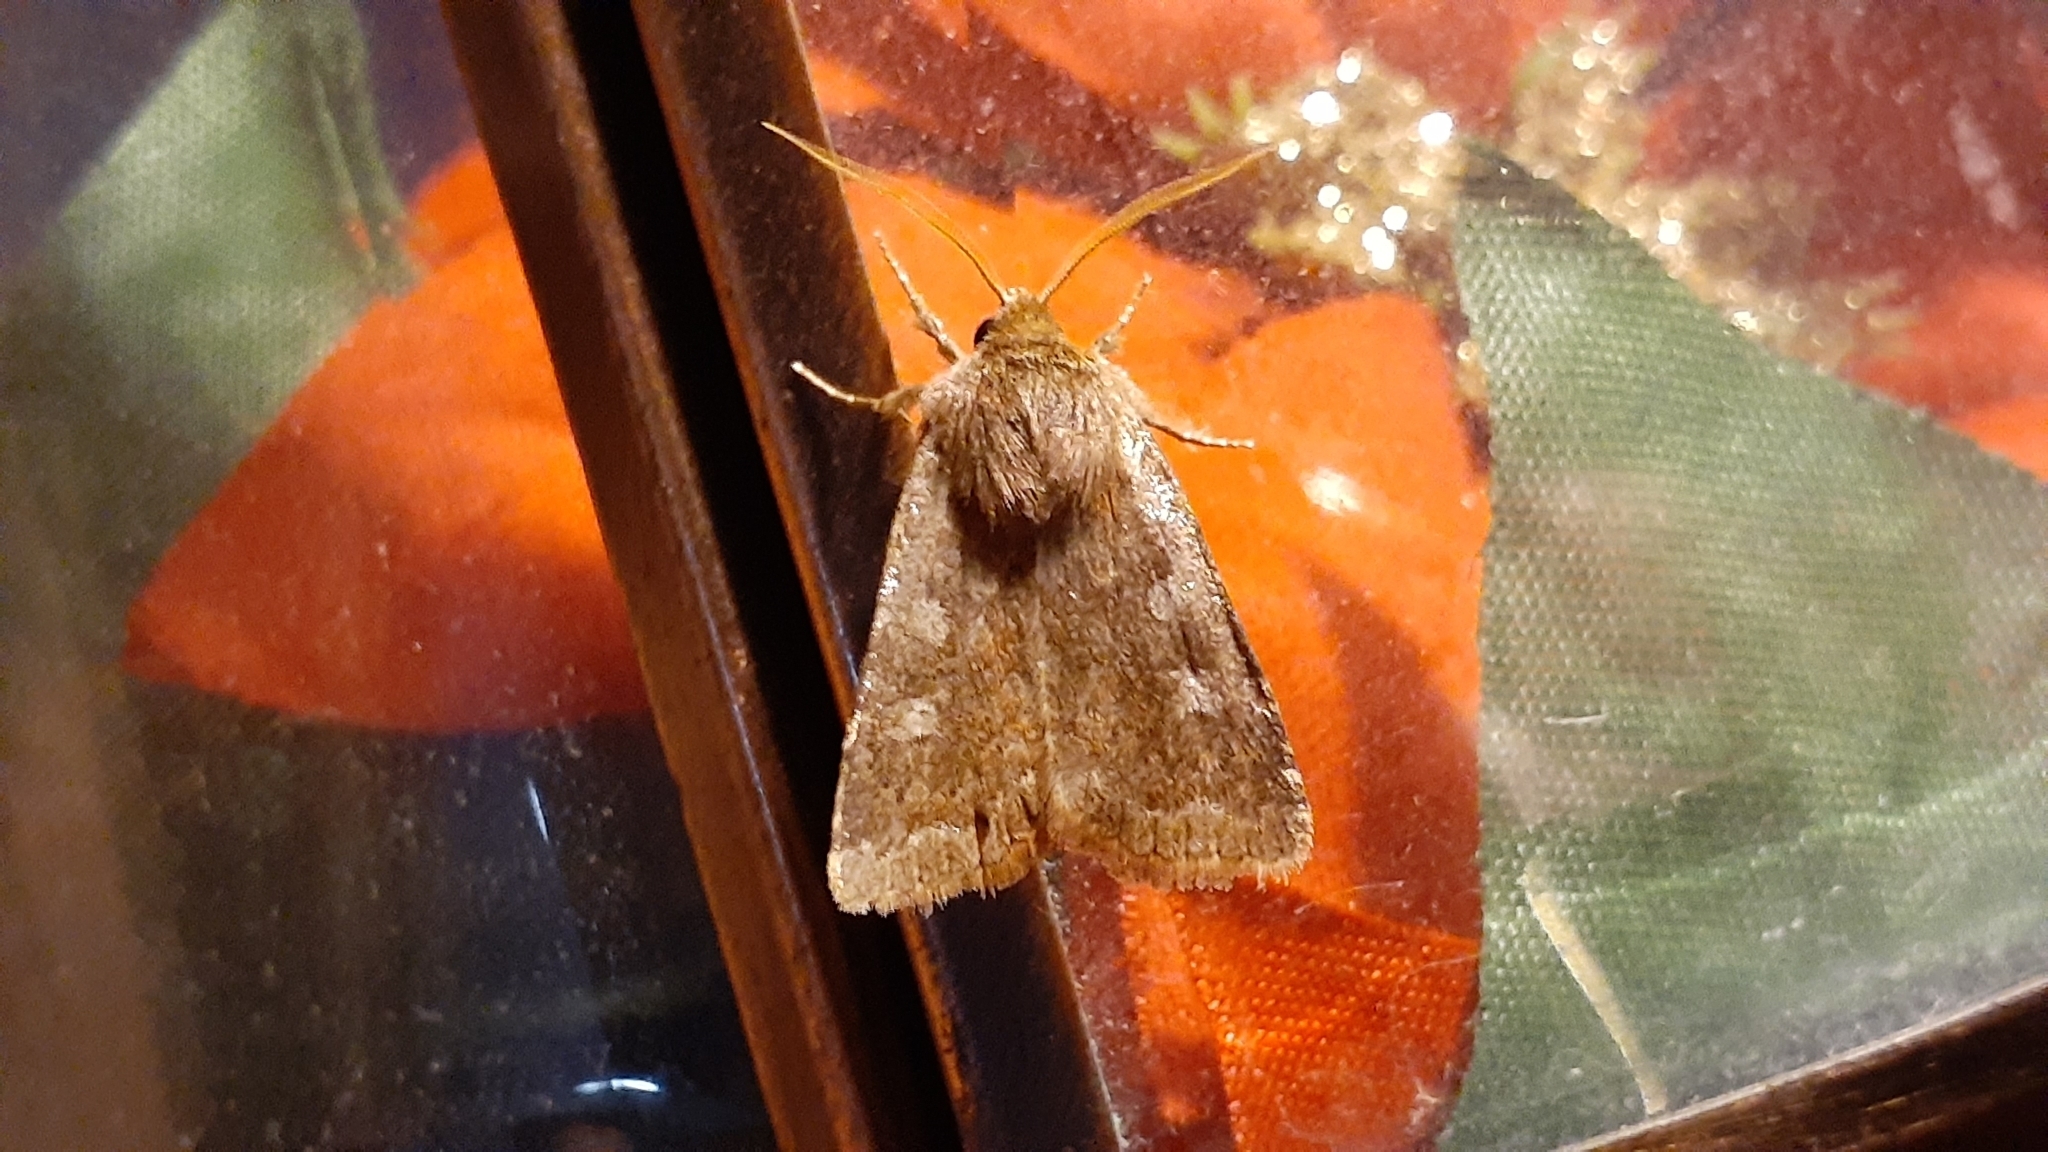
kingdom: Animalia
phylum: Arthropoda
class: Insecta
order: Lepidoptera
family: Noctuidae
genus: Cerastis
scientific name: Cerastis tenebrifera
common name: Reddish speckled dart
